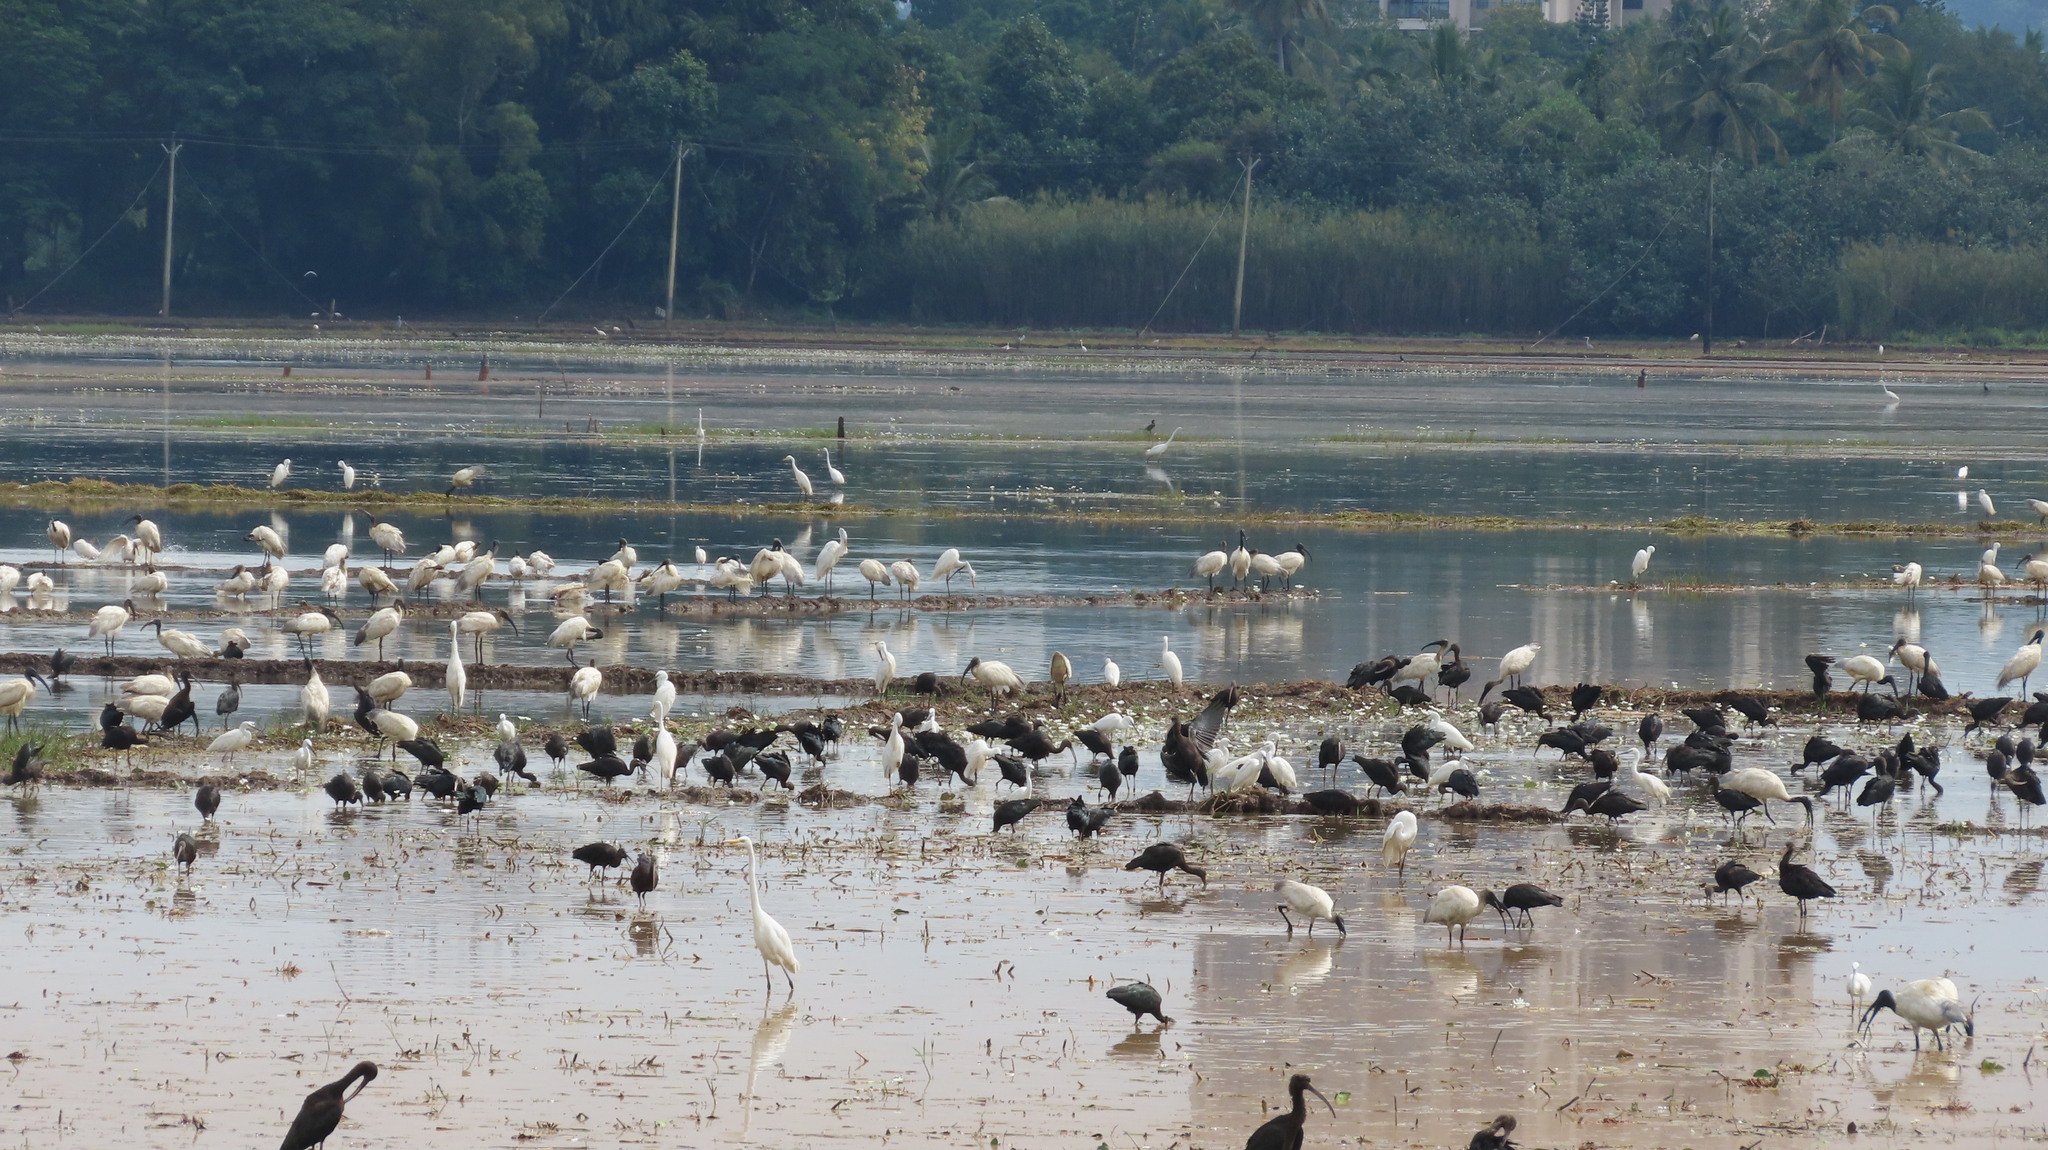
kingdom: Animalia
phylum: Chordata
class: Aves
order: Pelecaniformes
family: Threskiornithidae
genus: Threskiornis
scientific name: Threskiornis melanocephalus
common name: Black-headed ibis
